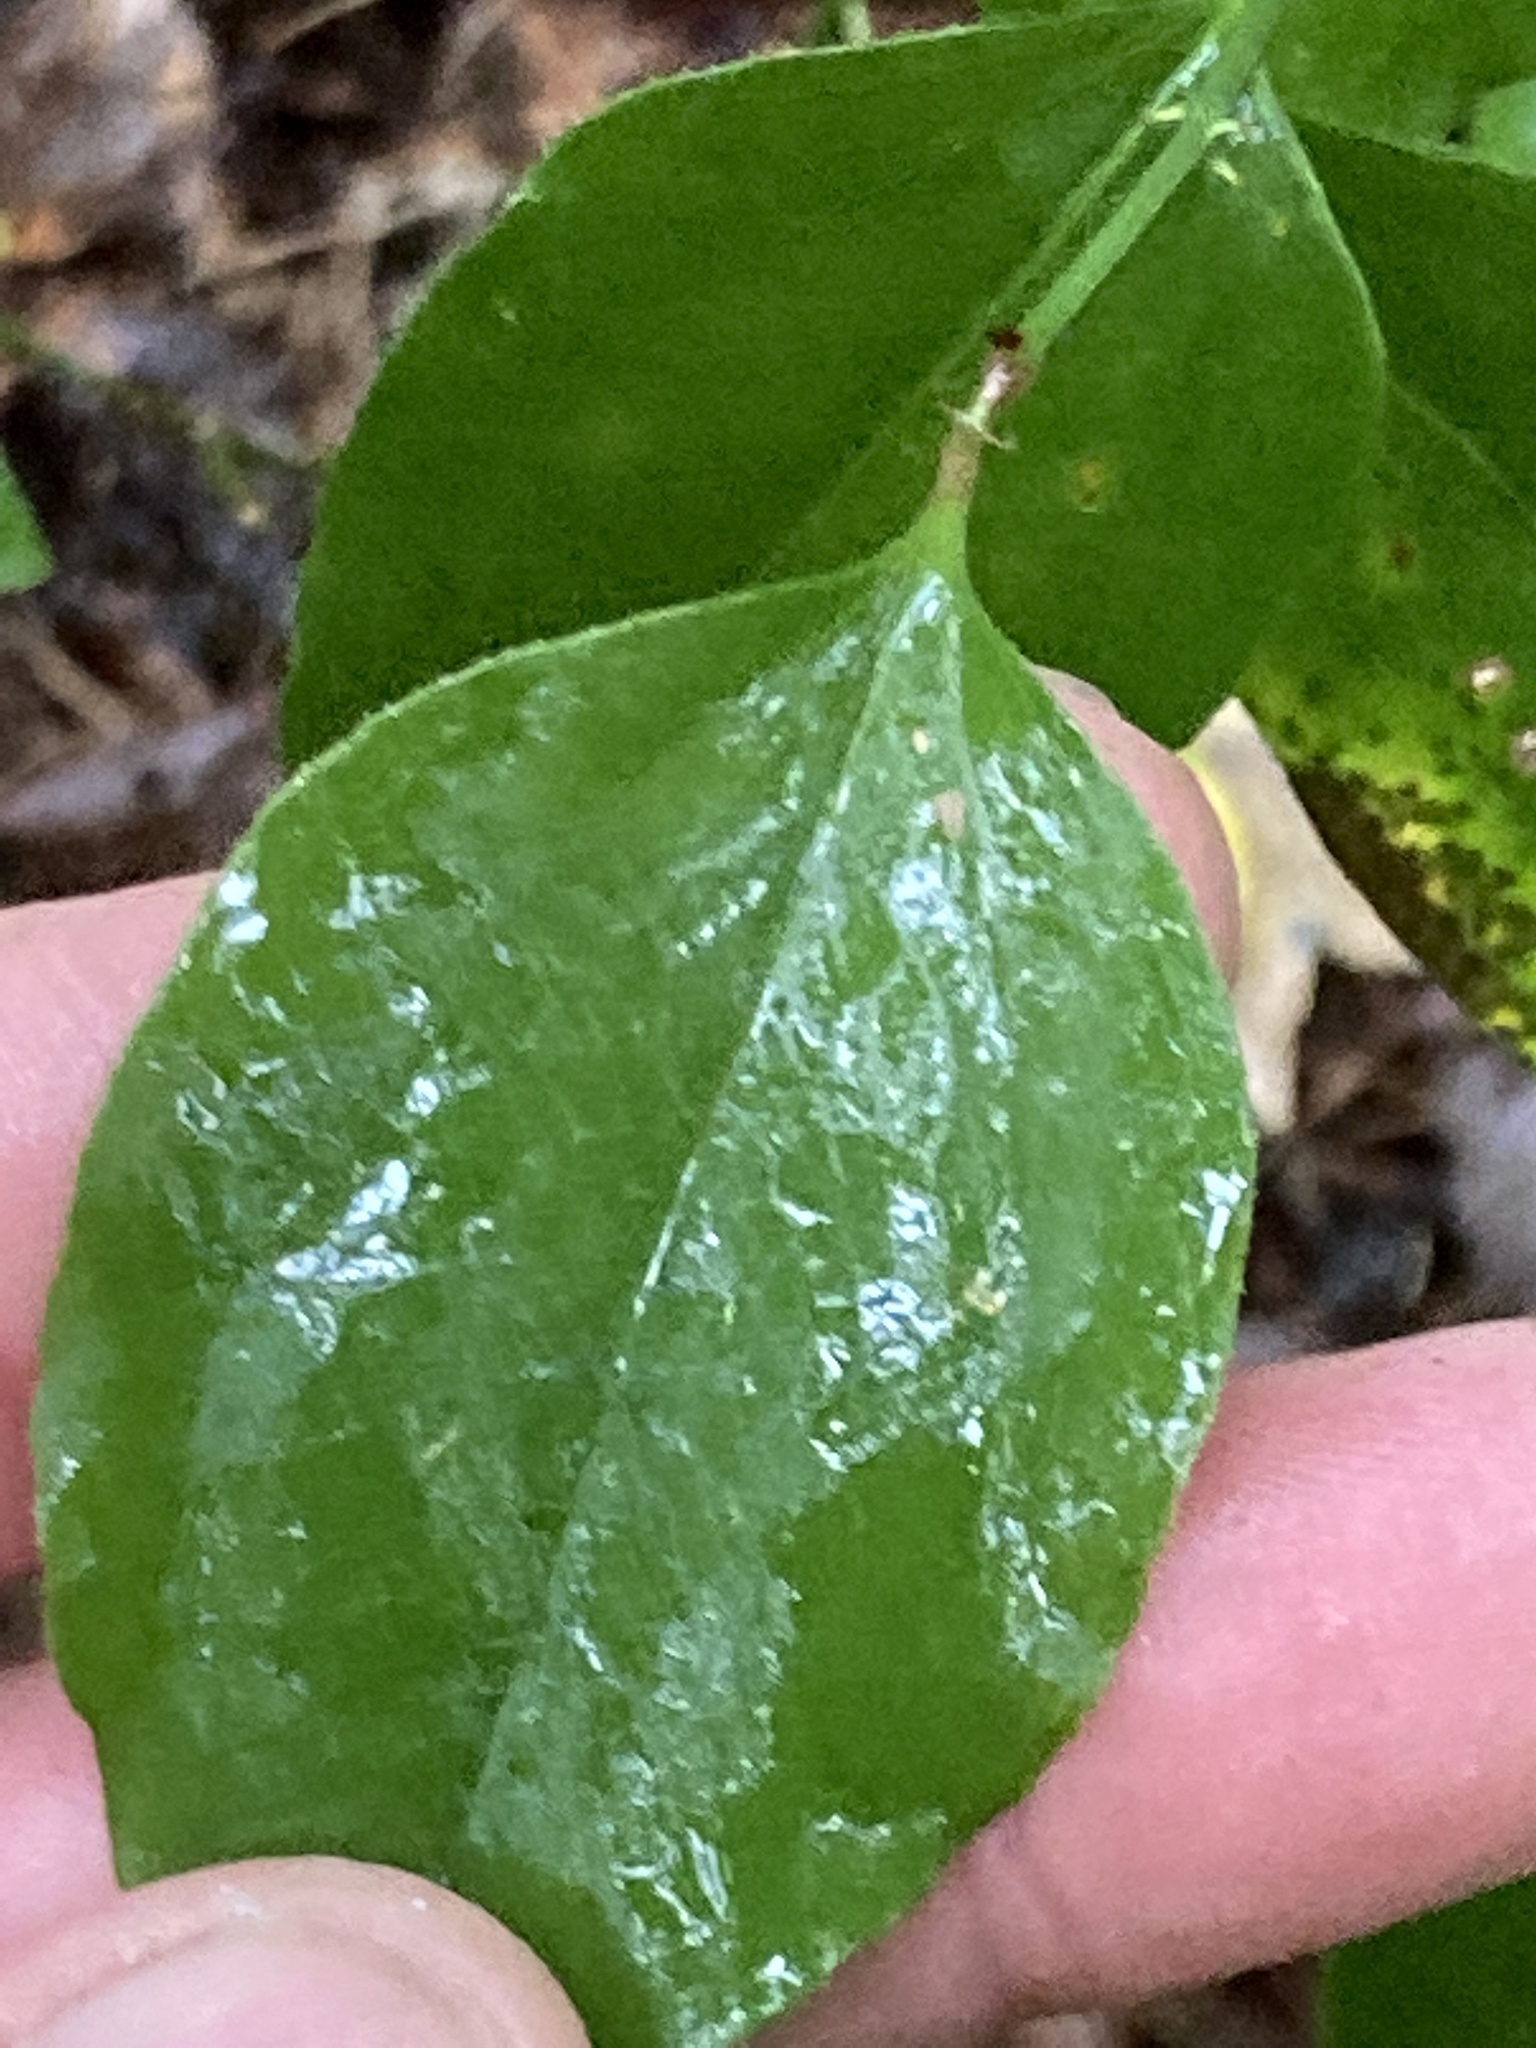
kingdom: Plantae
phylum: Tracheophyta
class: Liliopsida
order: Liliales
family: Smilacaceae
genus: Smilax
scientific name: Smilax rotundifolia
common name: Bullbriar
